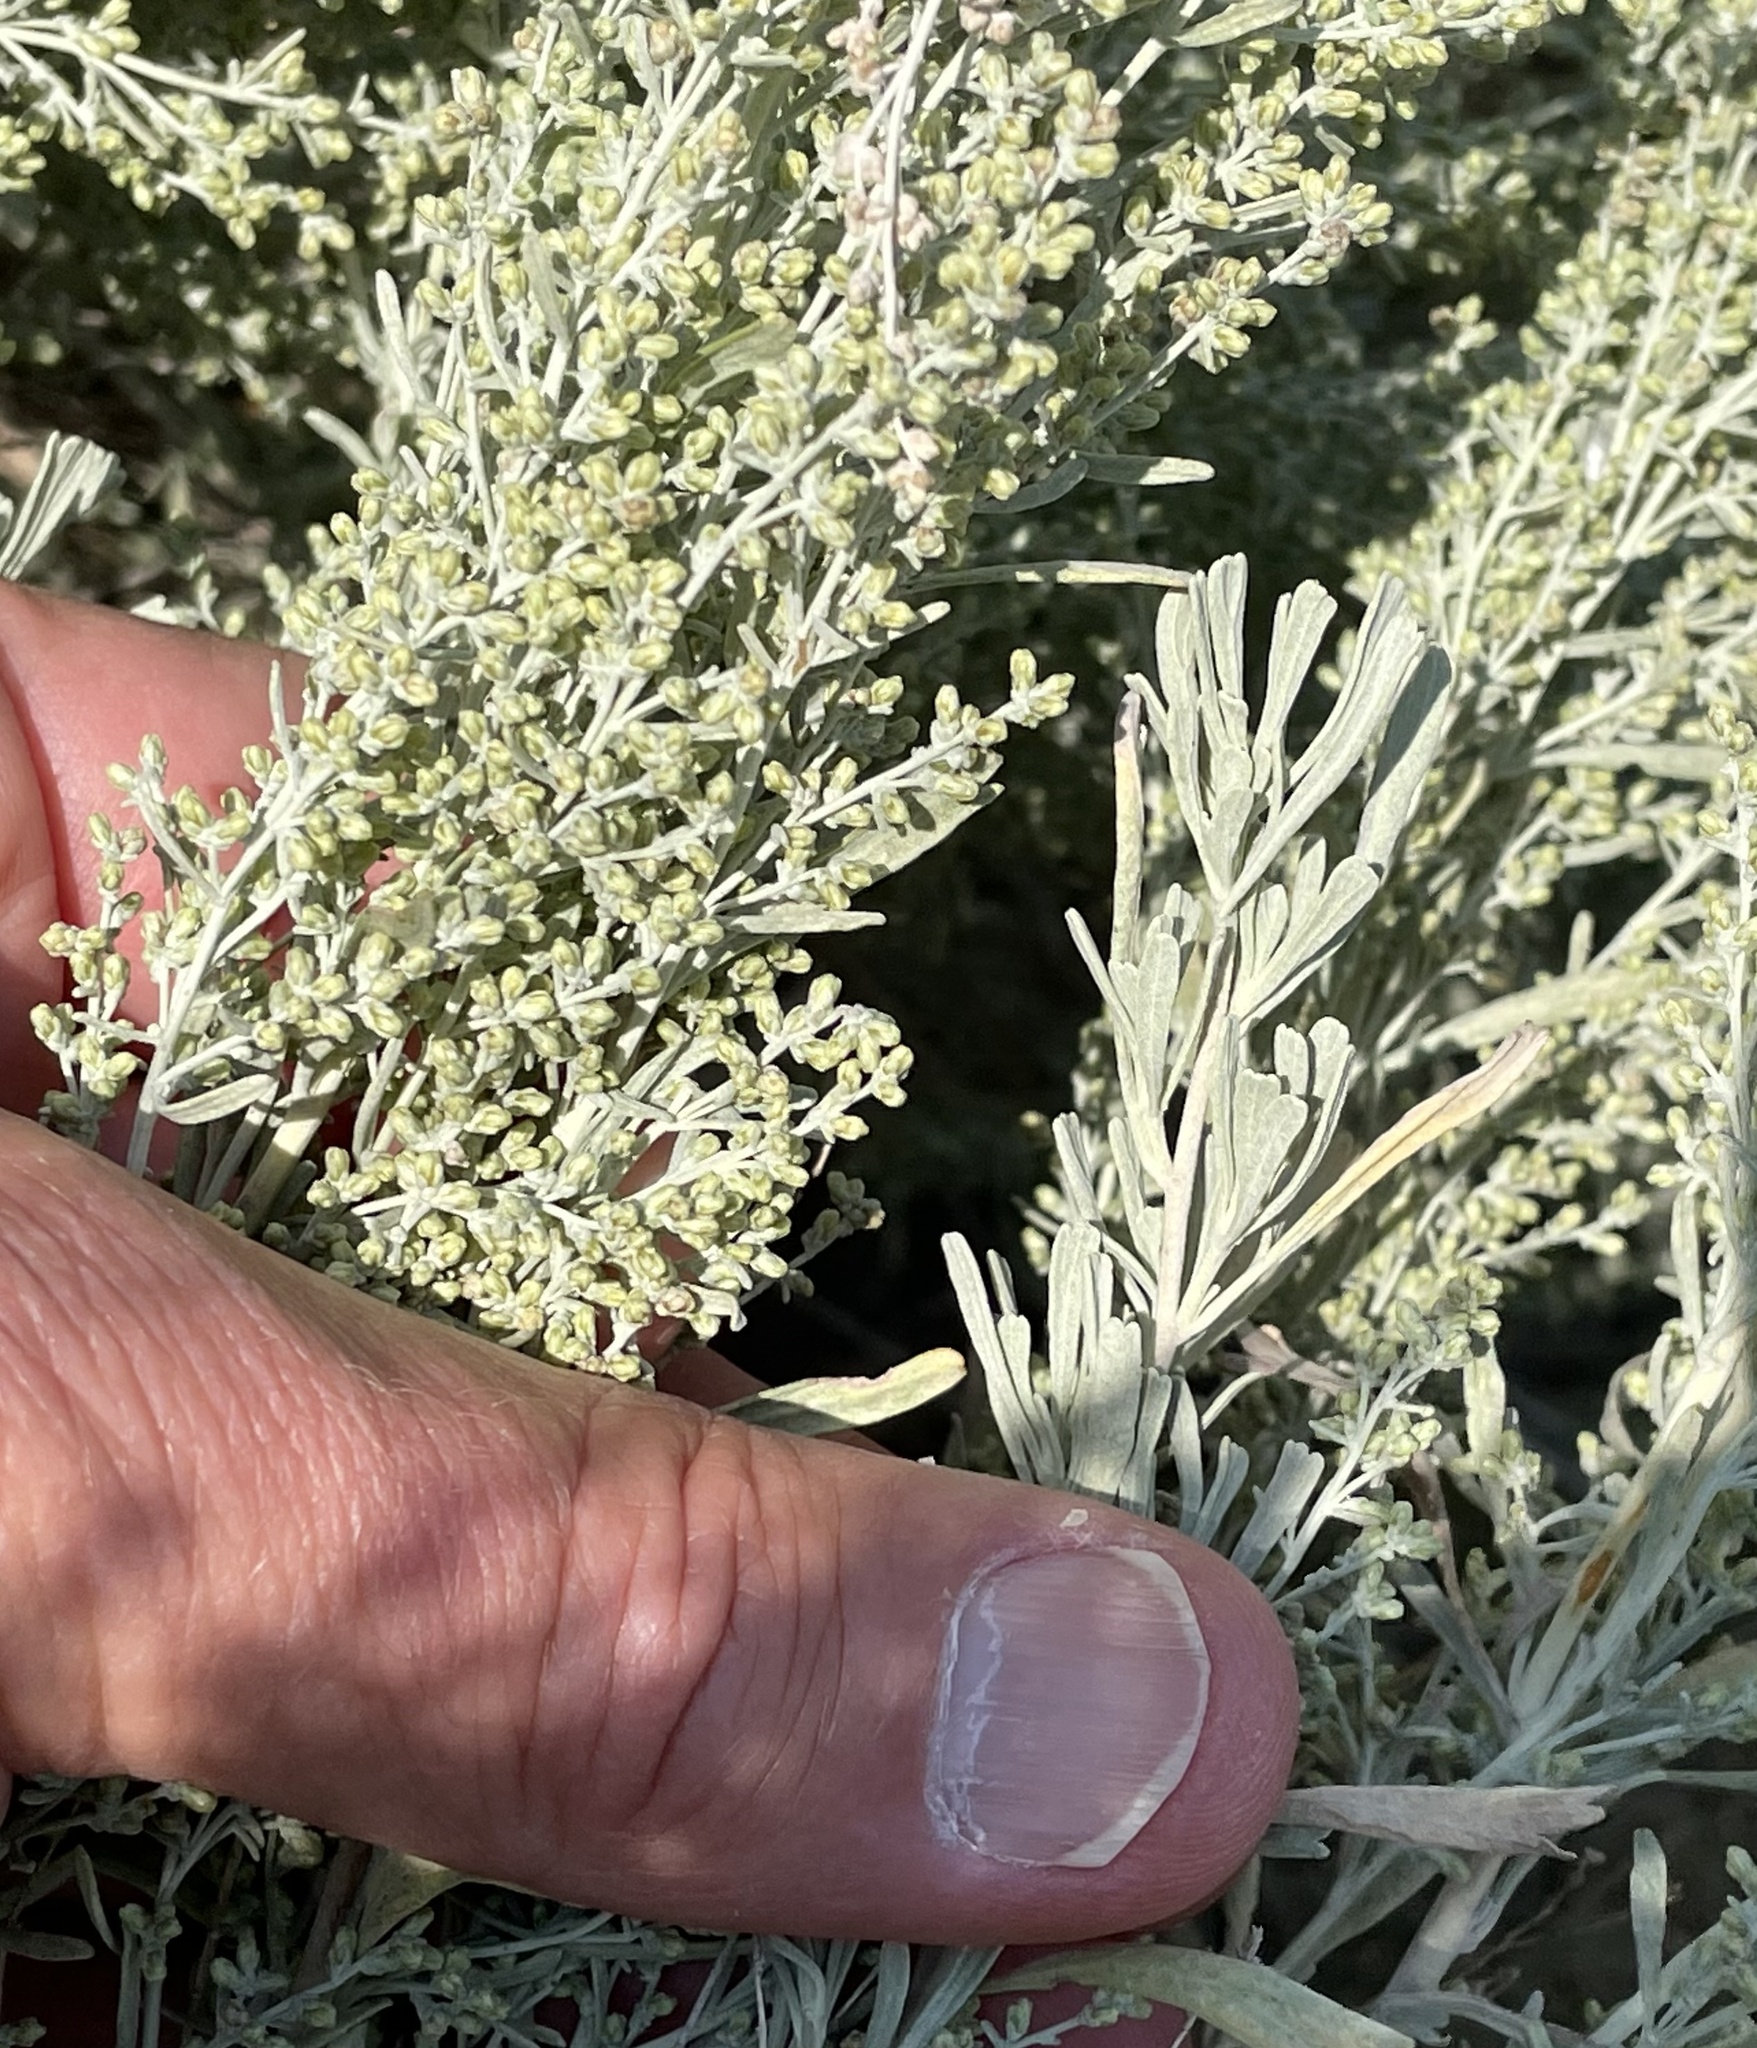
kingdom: Plantae
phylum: Tracheophyta
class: Magnoliopsida
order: Asterales
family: Asteraceae
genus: Artemisia
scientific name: Artemisia tridentata
